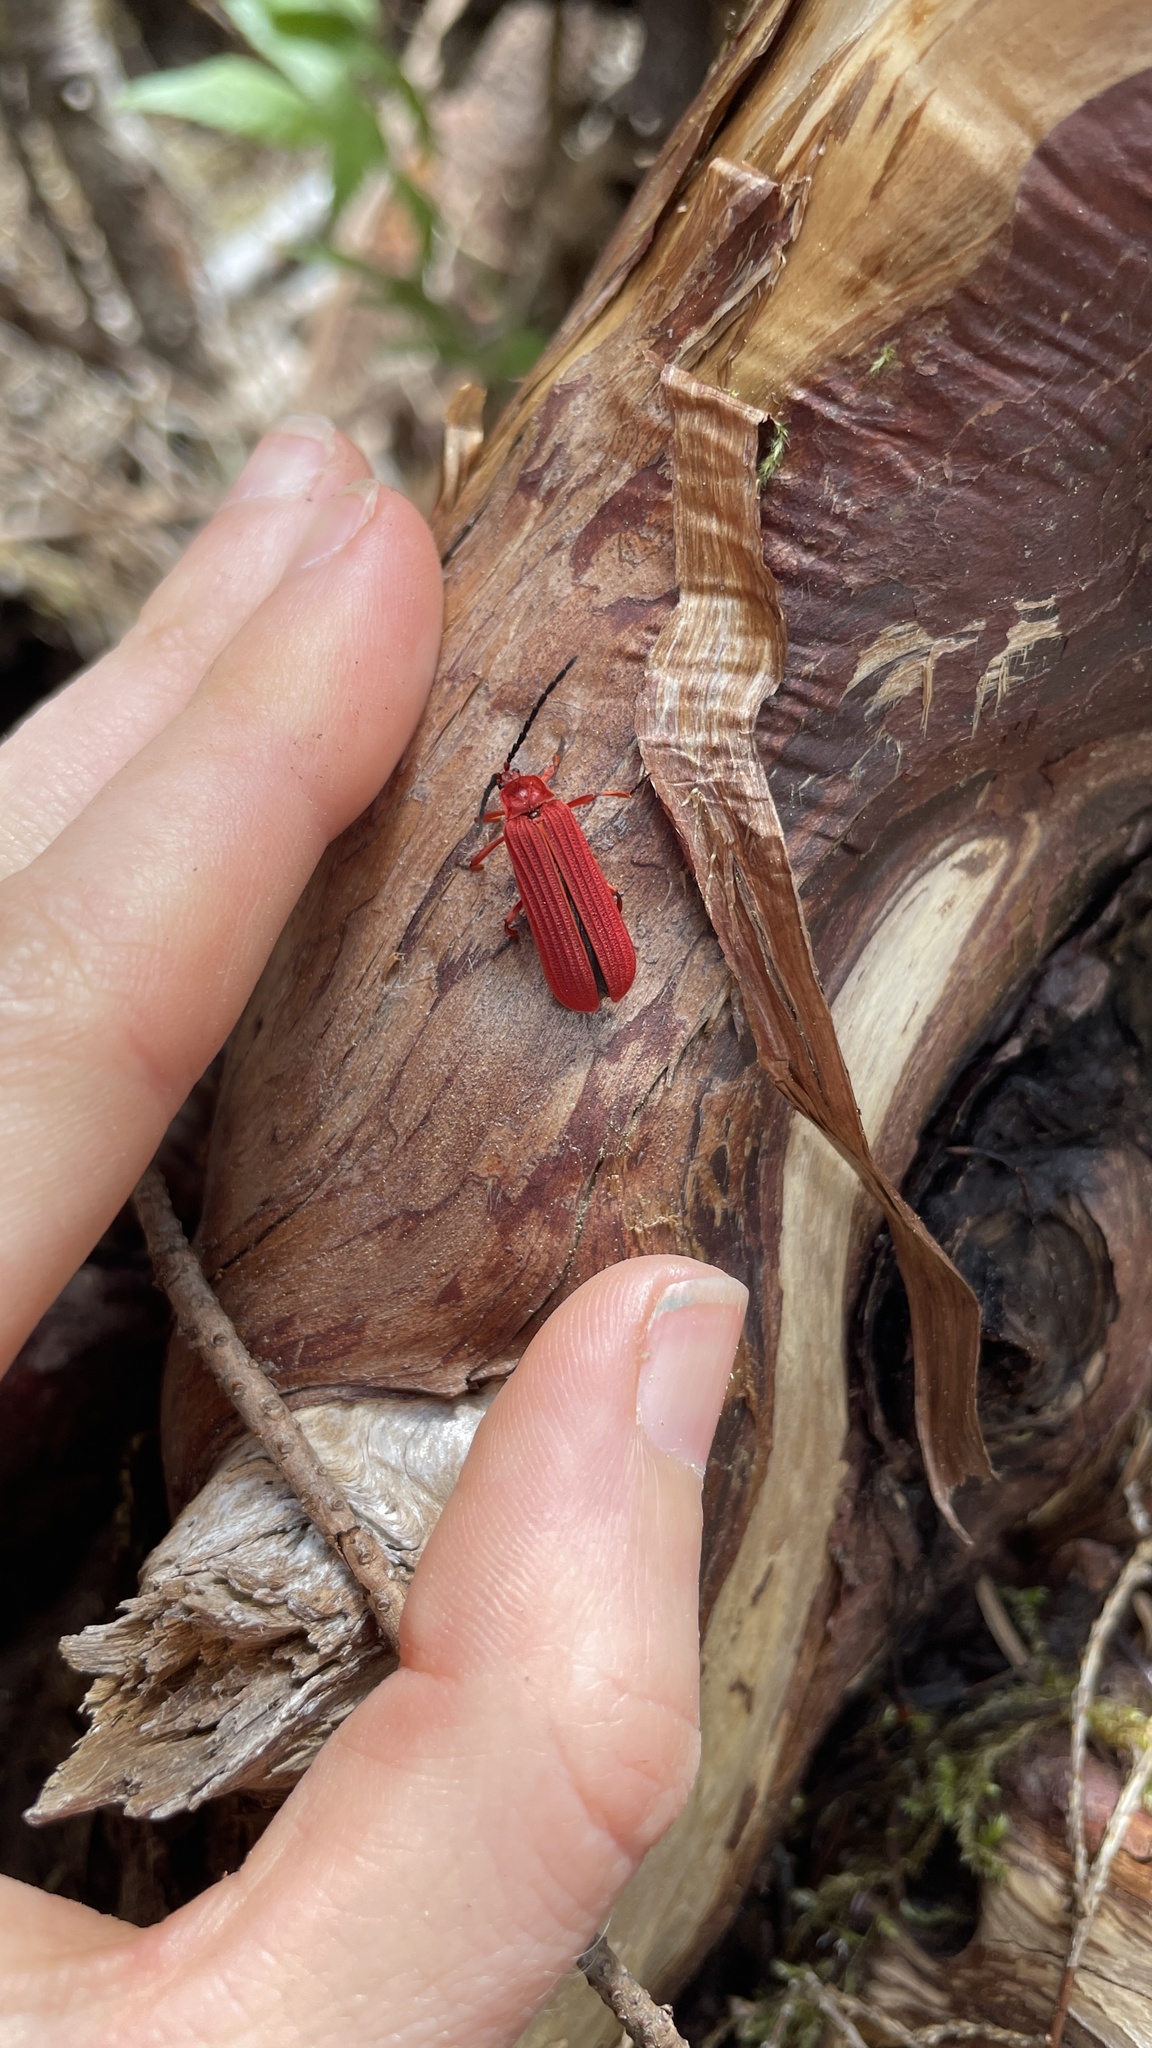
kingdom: Animalia
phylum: Arthropoda
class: Insecta
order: Coleoptera
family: Lycidae
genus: Punicealis
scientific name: Punicealis hamata
